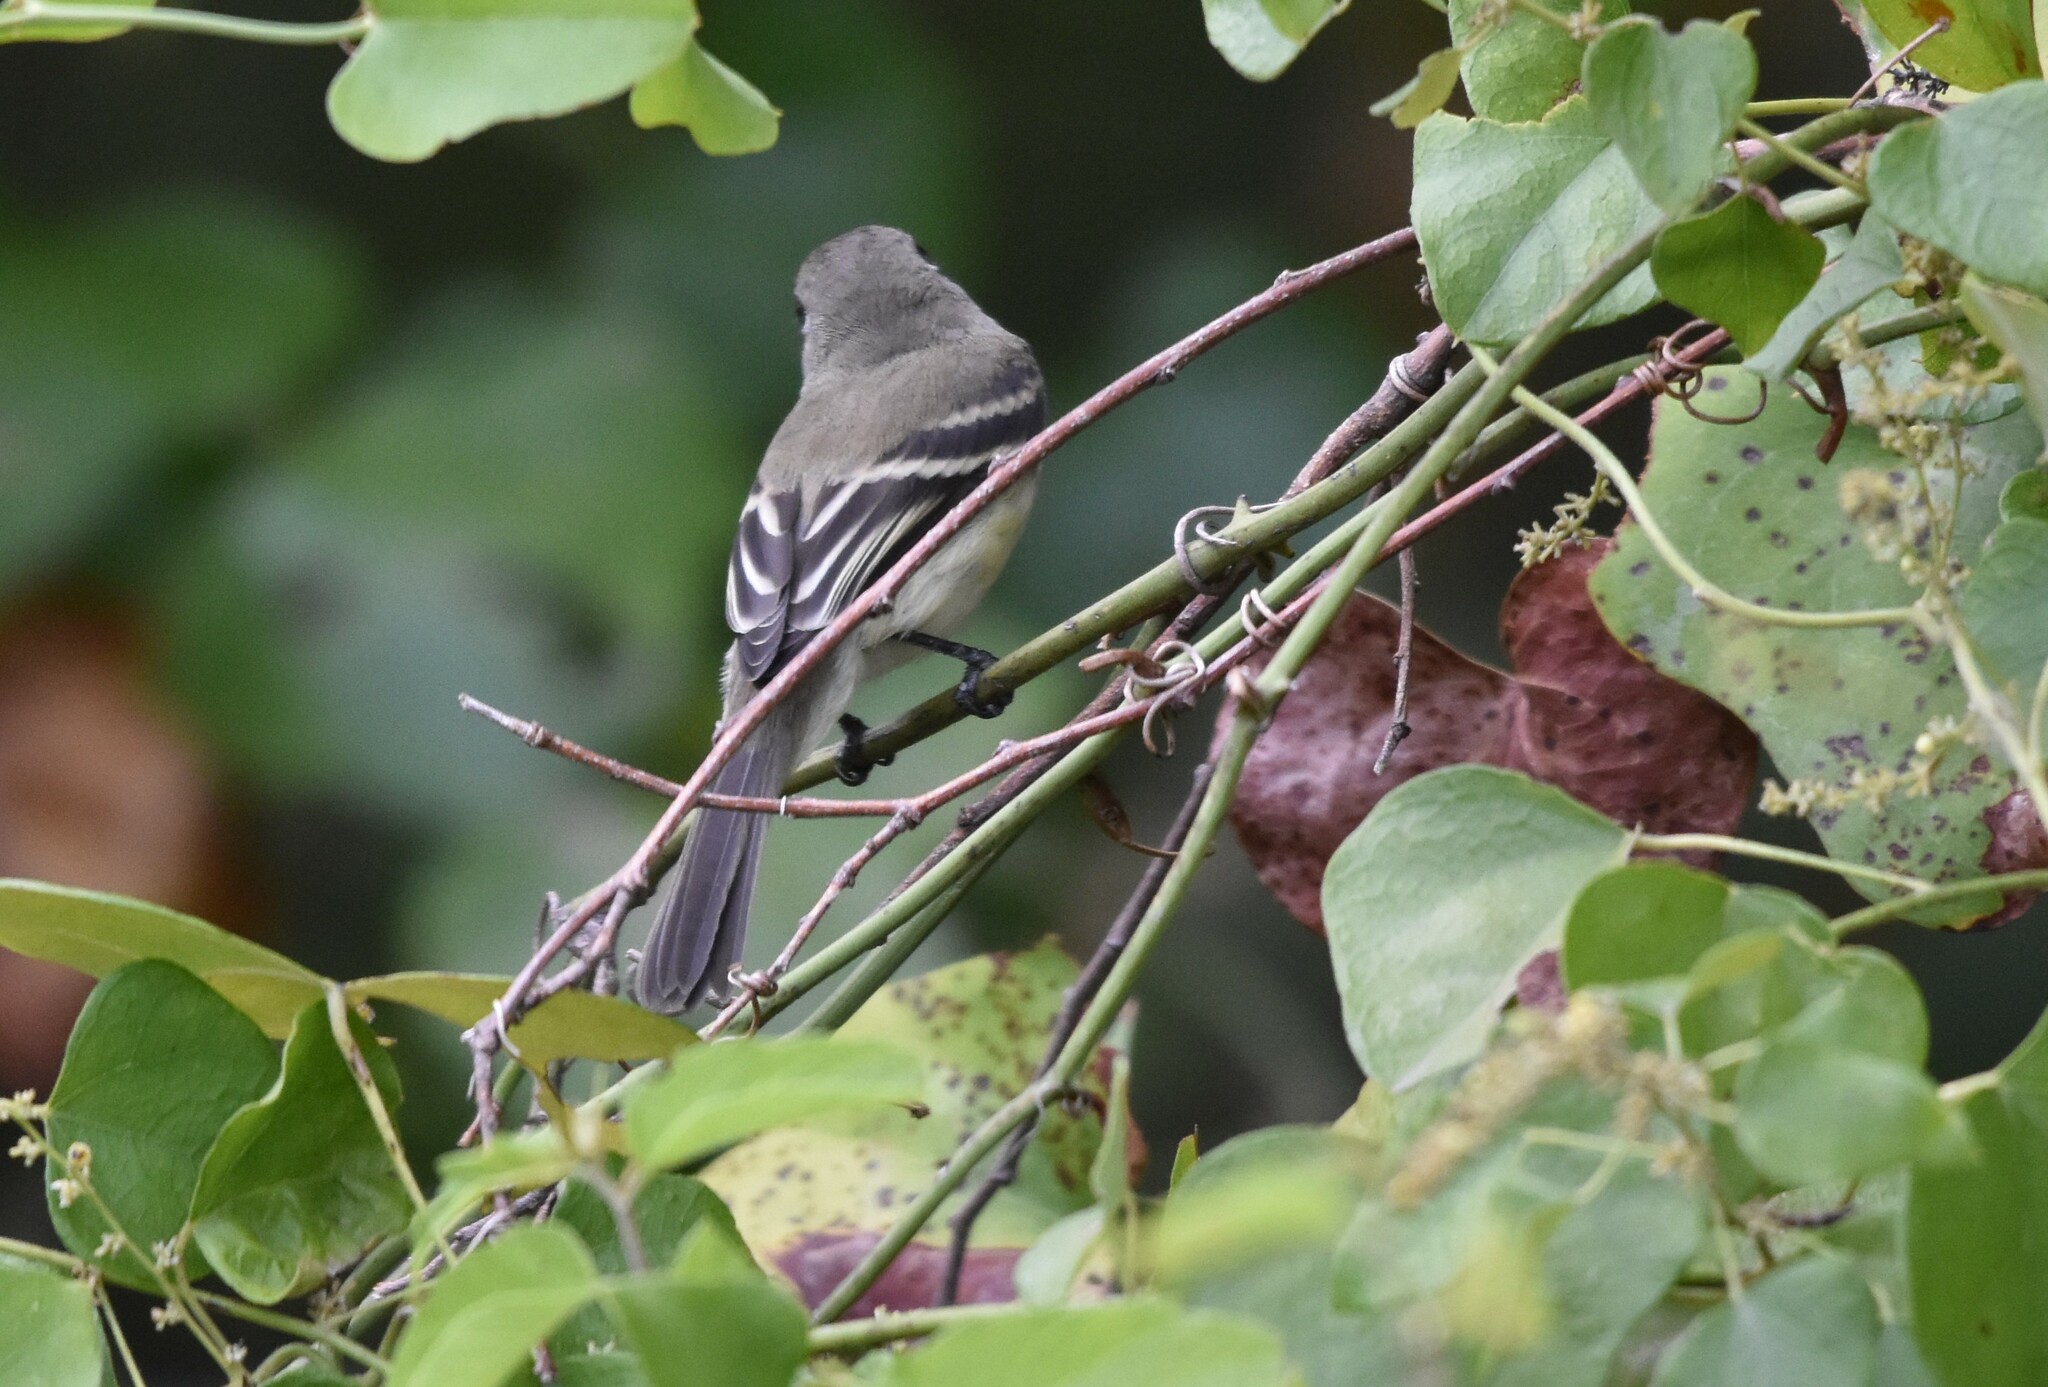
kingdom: Animalia
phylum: Chordata
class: Aves
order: Passeriformes
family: Tyrannidae
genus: Empidonax
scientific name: Empidonax minimus
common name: Least flycatcher
